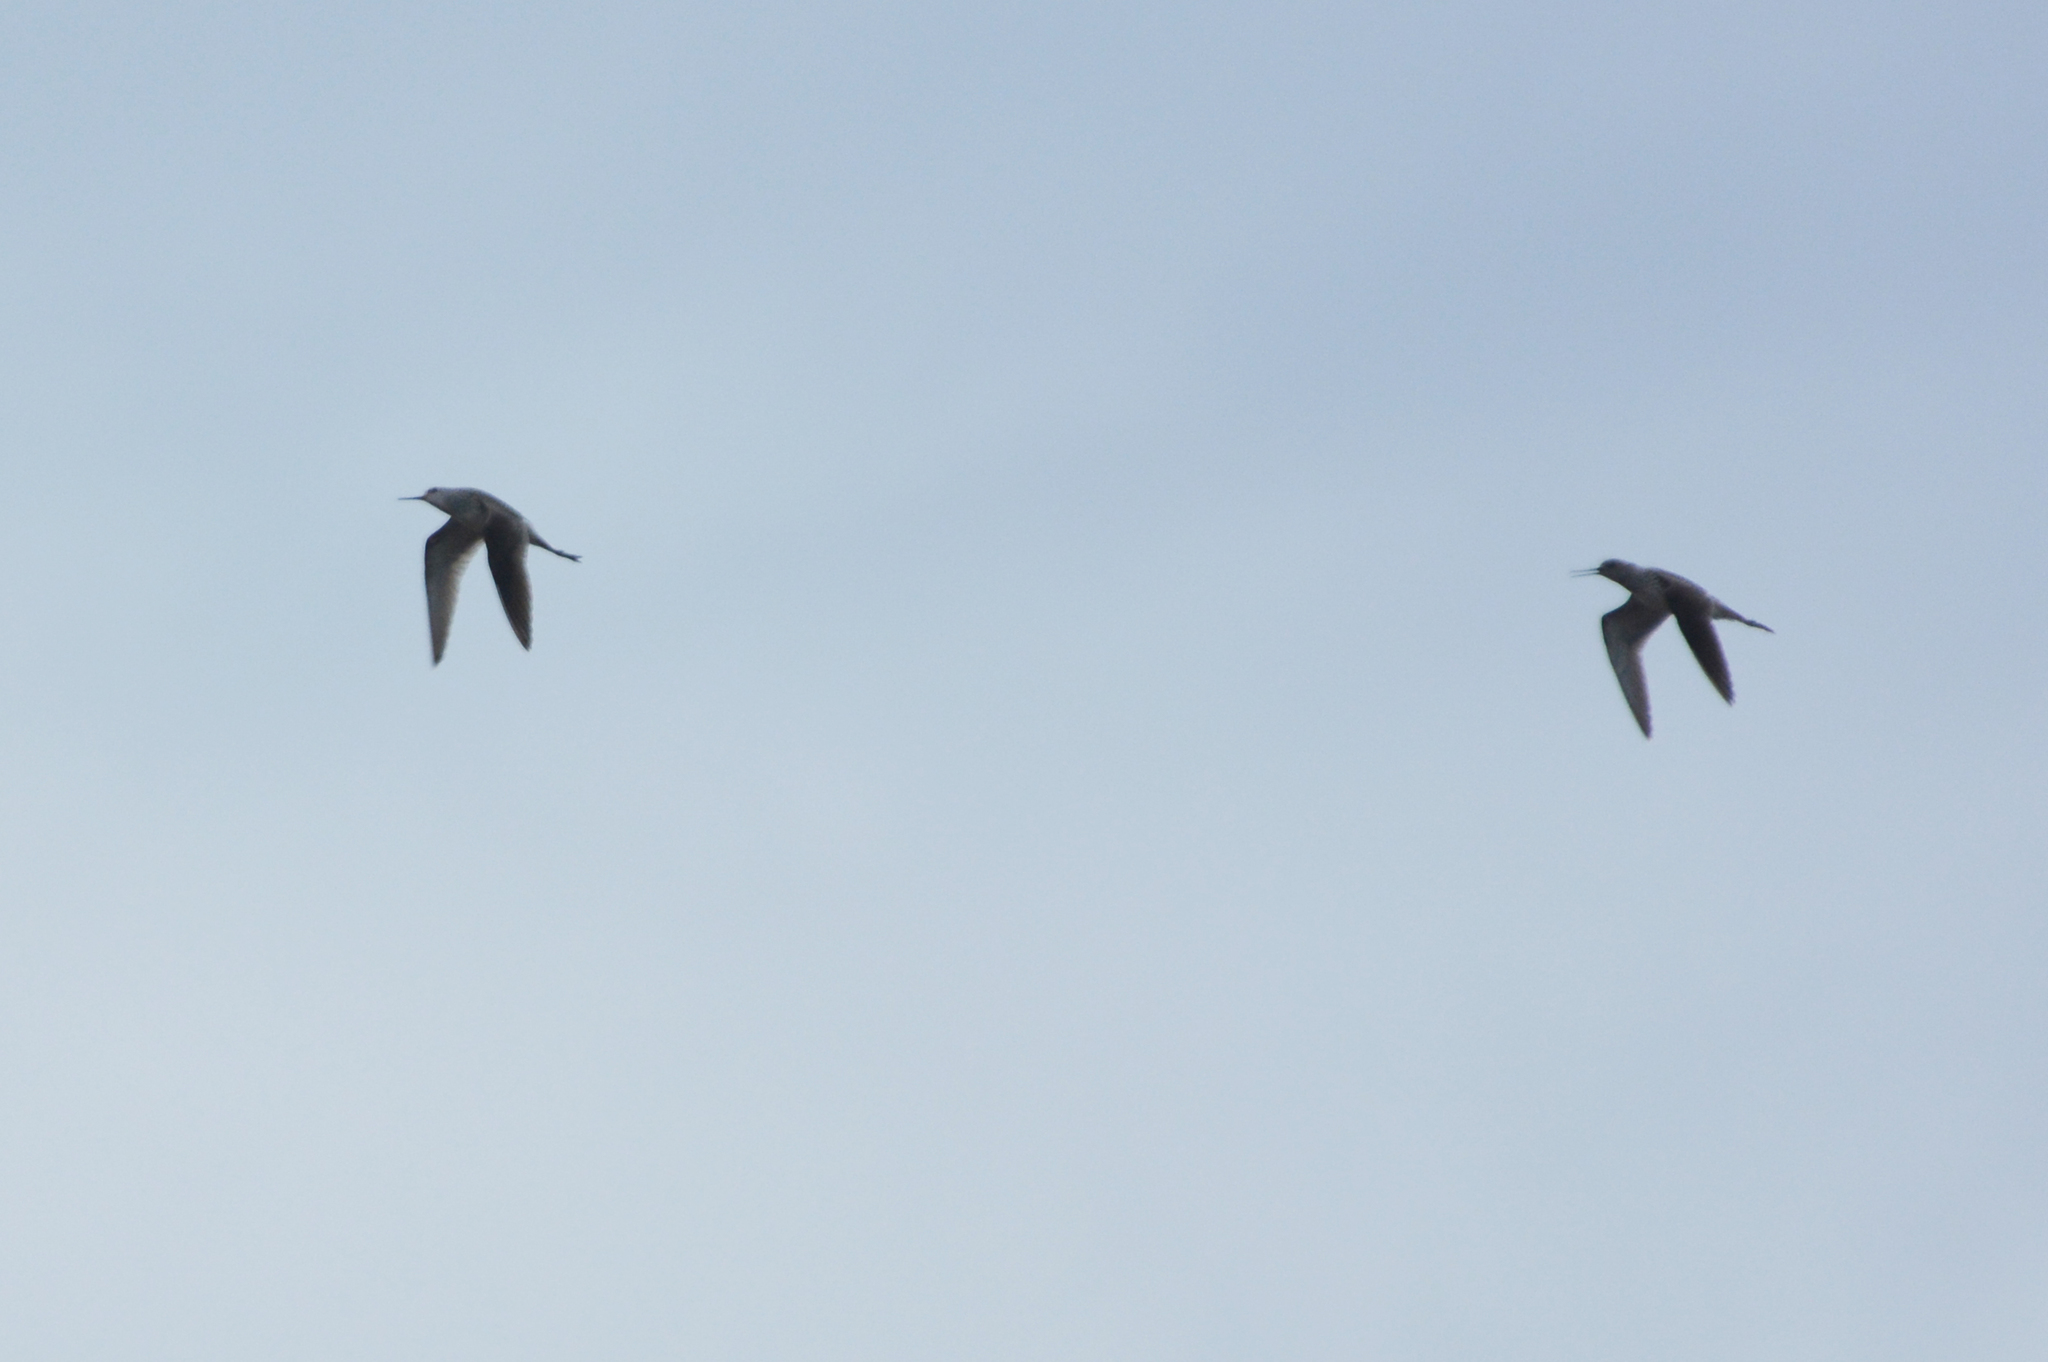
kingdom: Animalia
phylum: Chordata
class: Aves
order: Charadriiformes
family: Scolopacidae
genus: Tringa
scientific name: Tringa stagnatilis
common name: Marsh sandpiper
